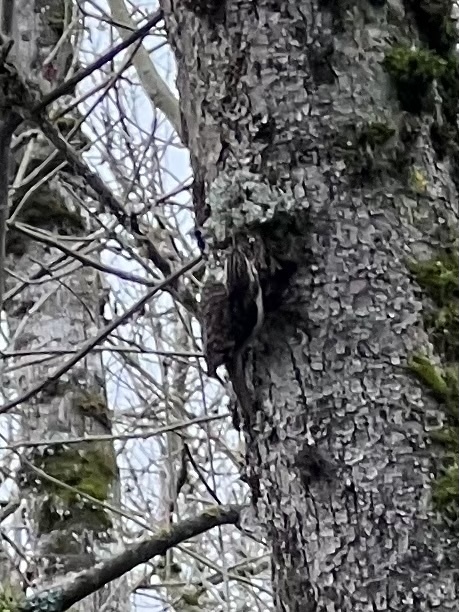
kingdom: Animalia
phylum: Chordata
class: Aves
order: Passeriformes
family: Certhiidae
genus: Certhia
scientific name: Certhia americana
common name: Brown creeper
